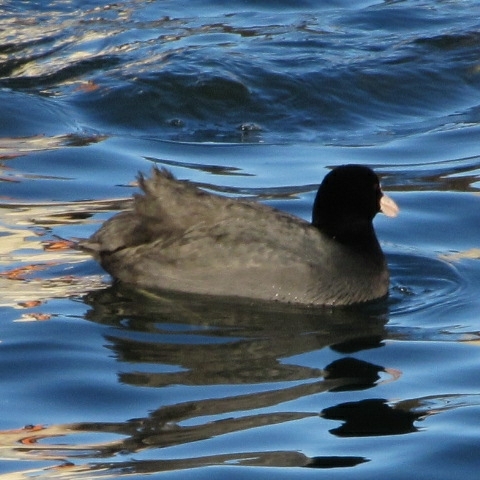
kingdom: Animalia
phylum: Chordata
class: Aves
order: Gruiformes
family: Rallidae
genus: Fulica
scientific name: Fulica atra
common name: Eurasian coot
